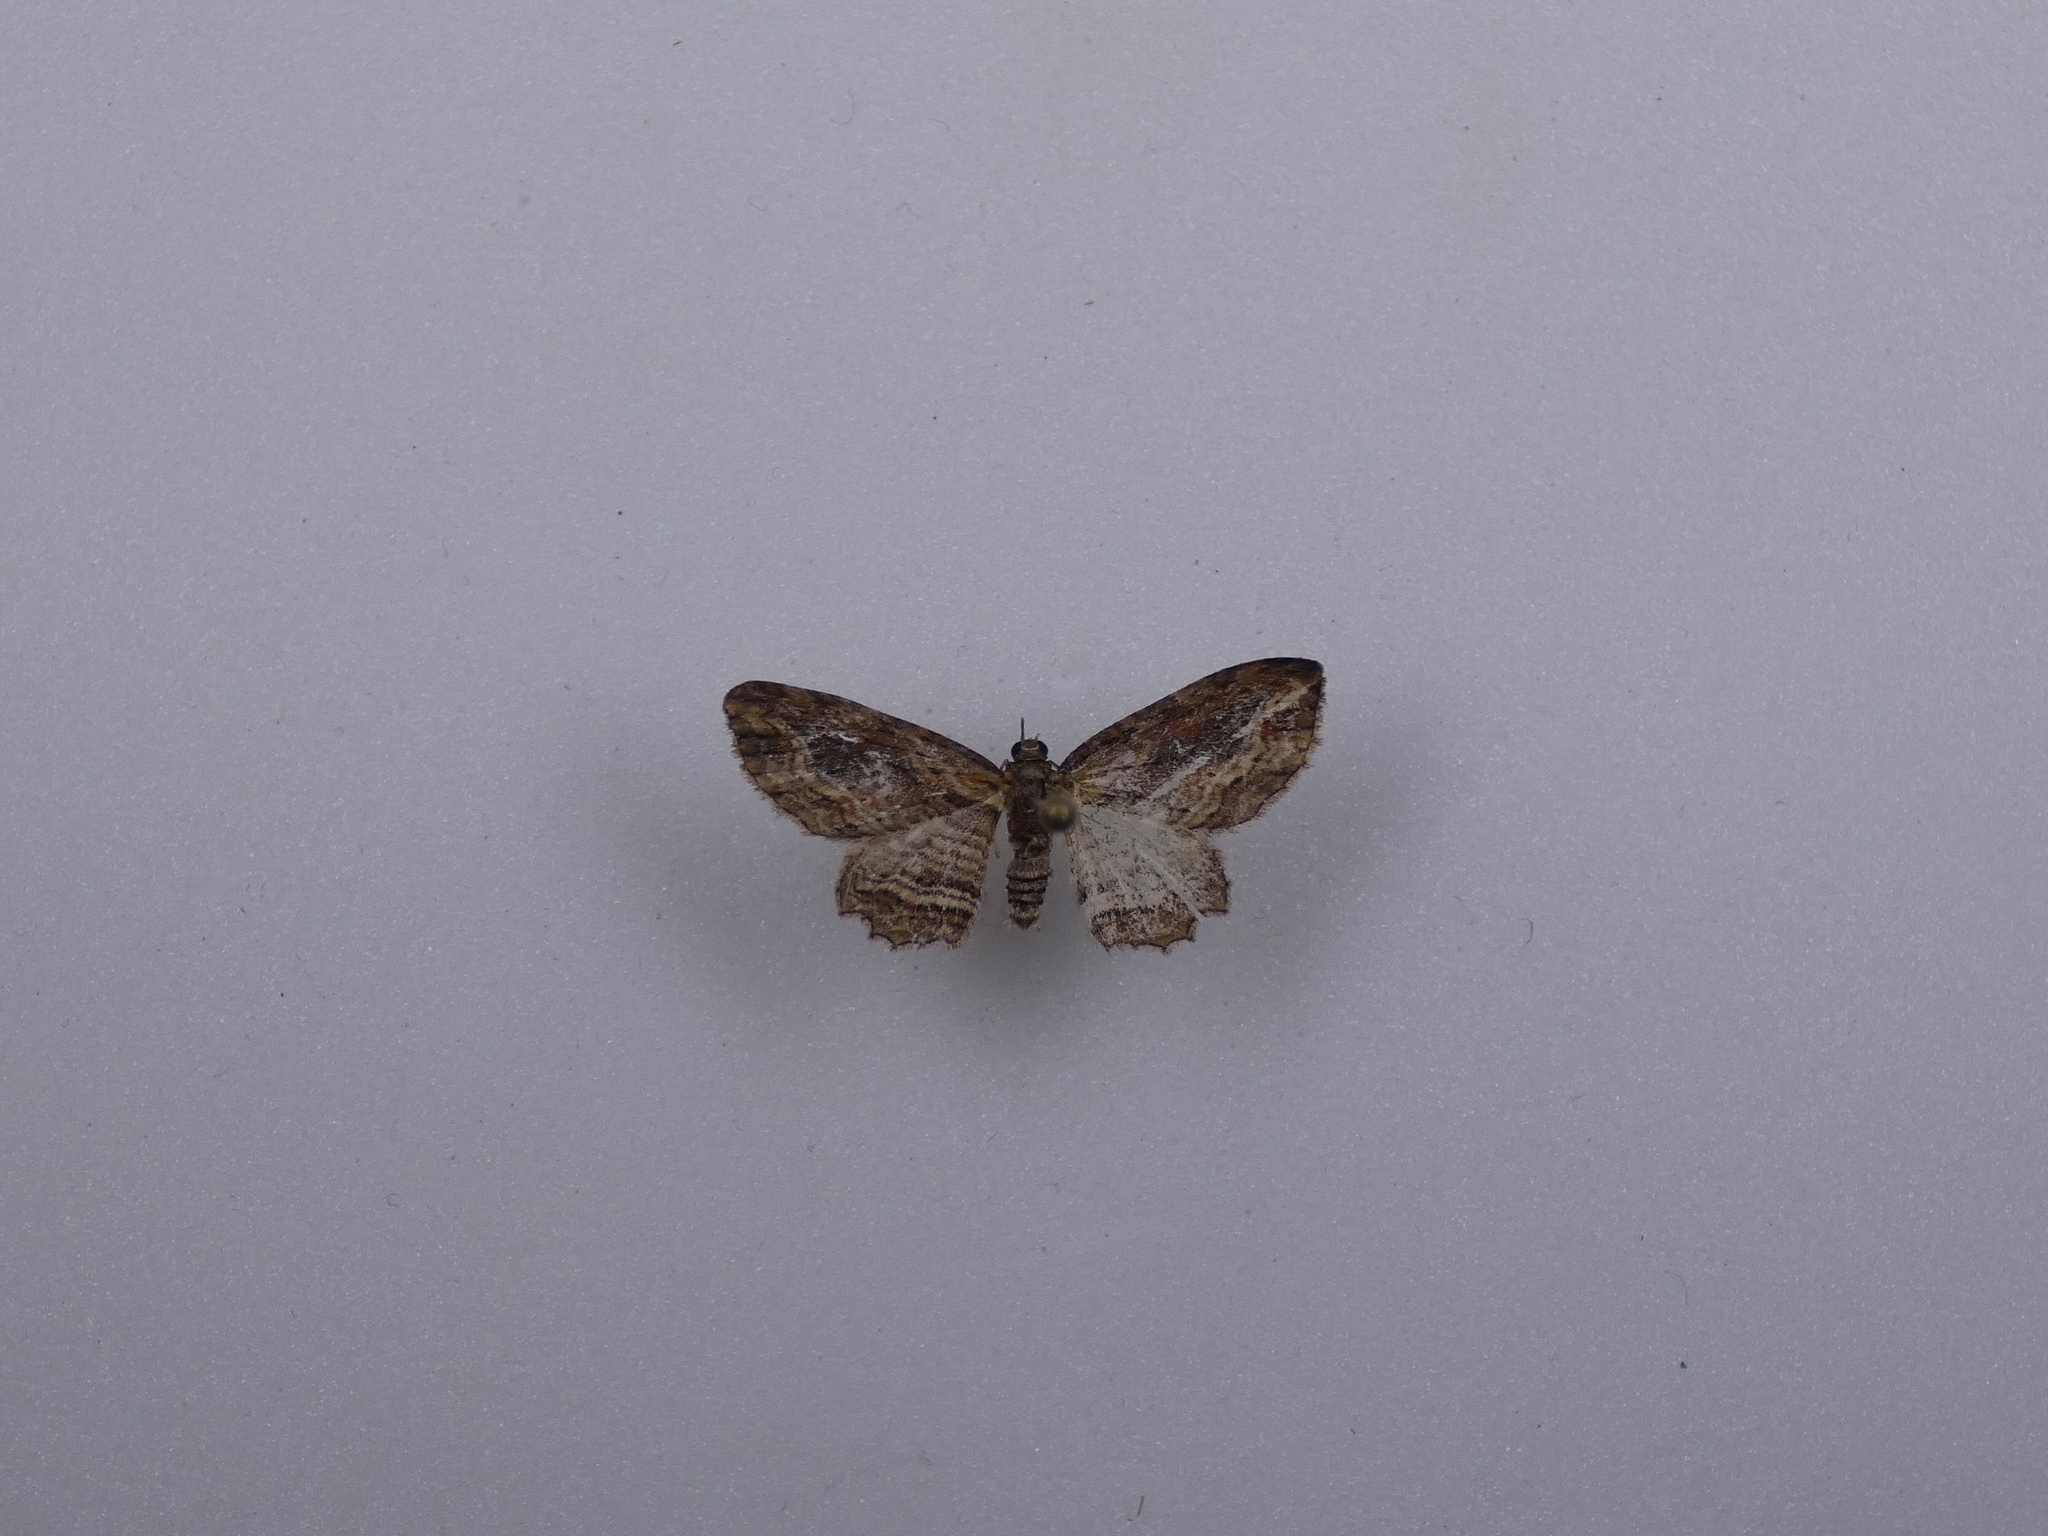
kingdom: Animalia
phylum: Arthropoda
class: Insecta
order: Lepidoptera
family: Geometridae
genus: Chloroclystis
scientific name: Chloroclystis filata
